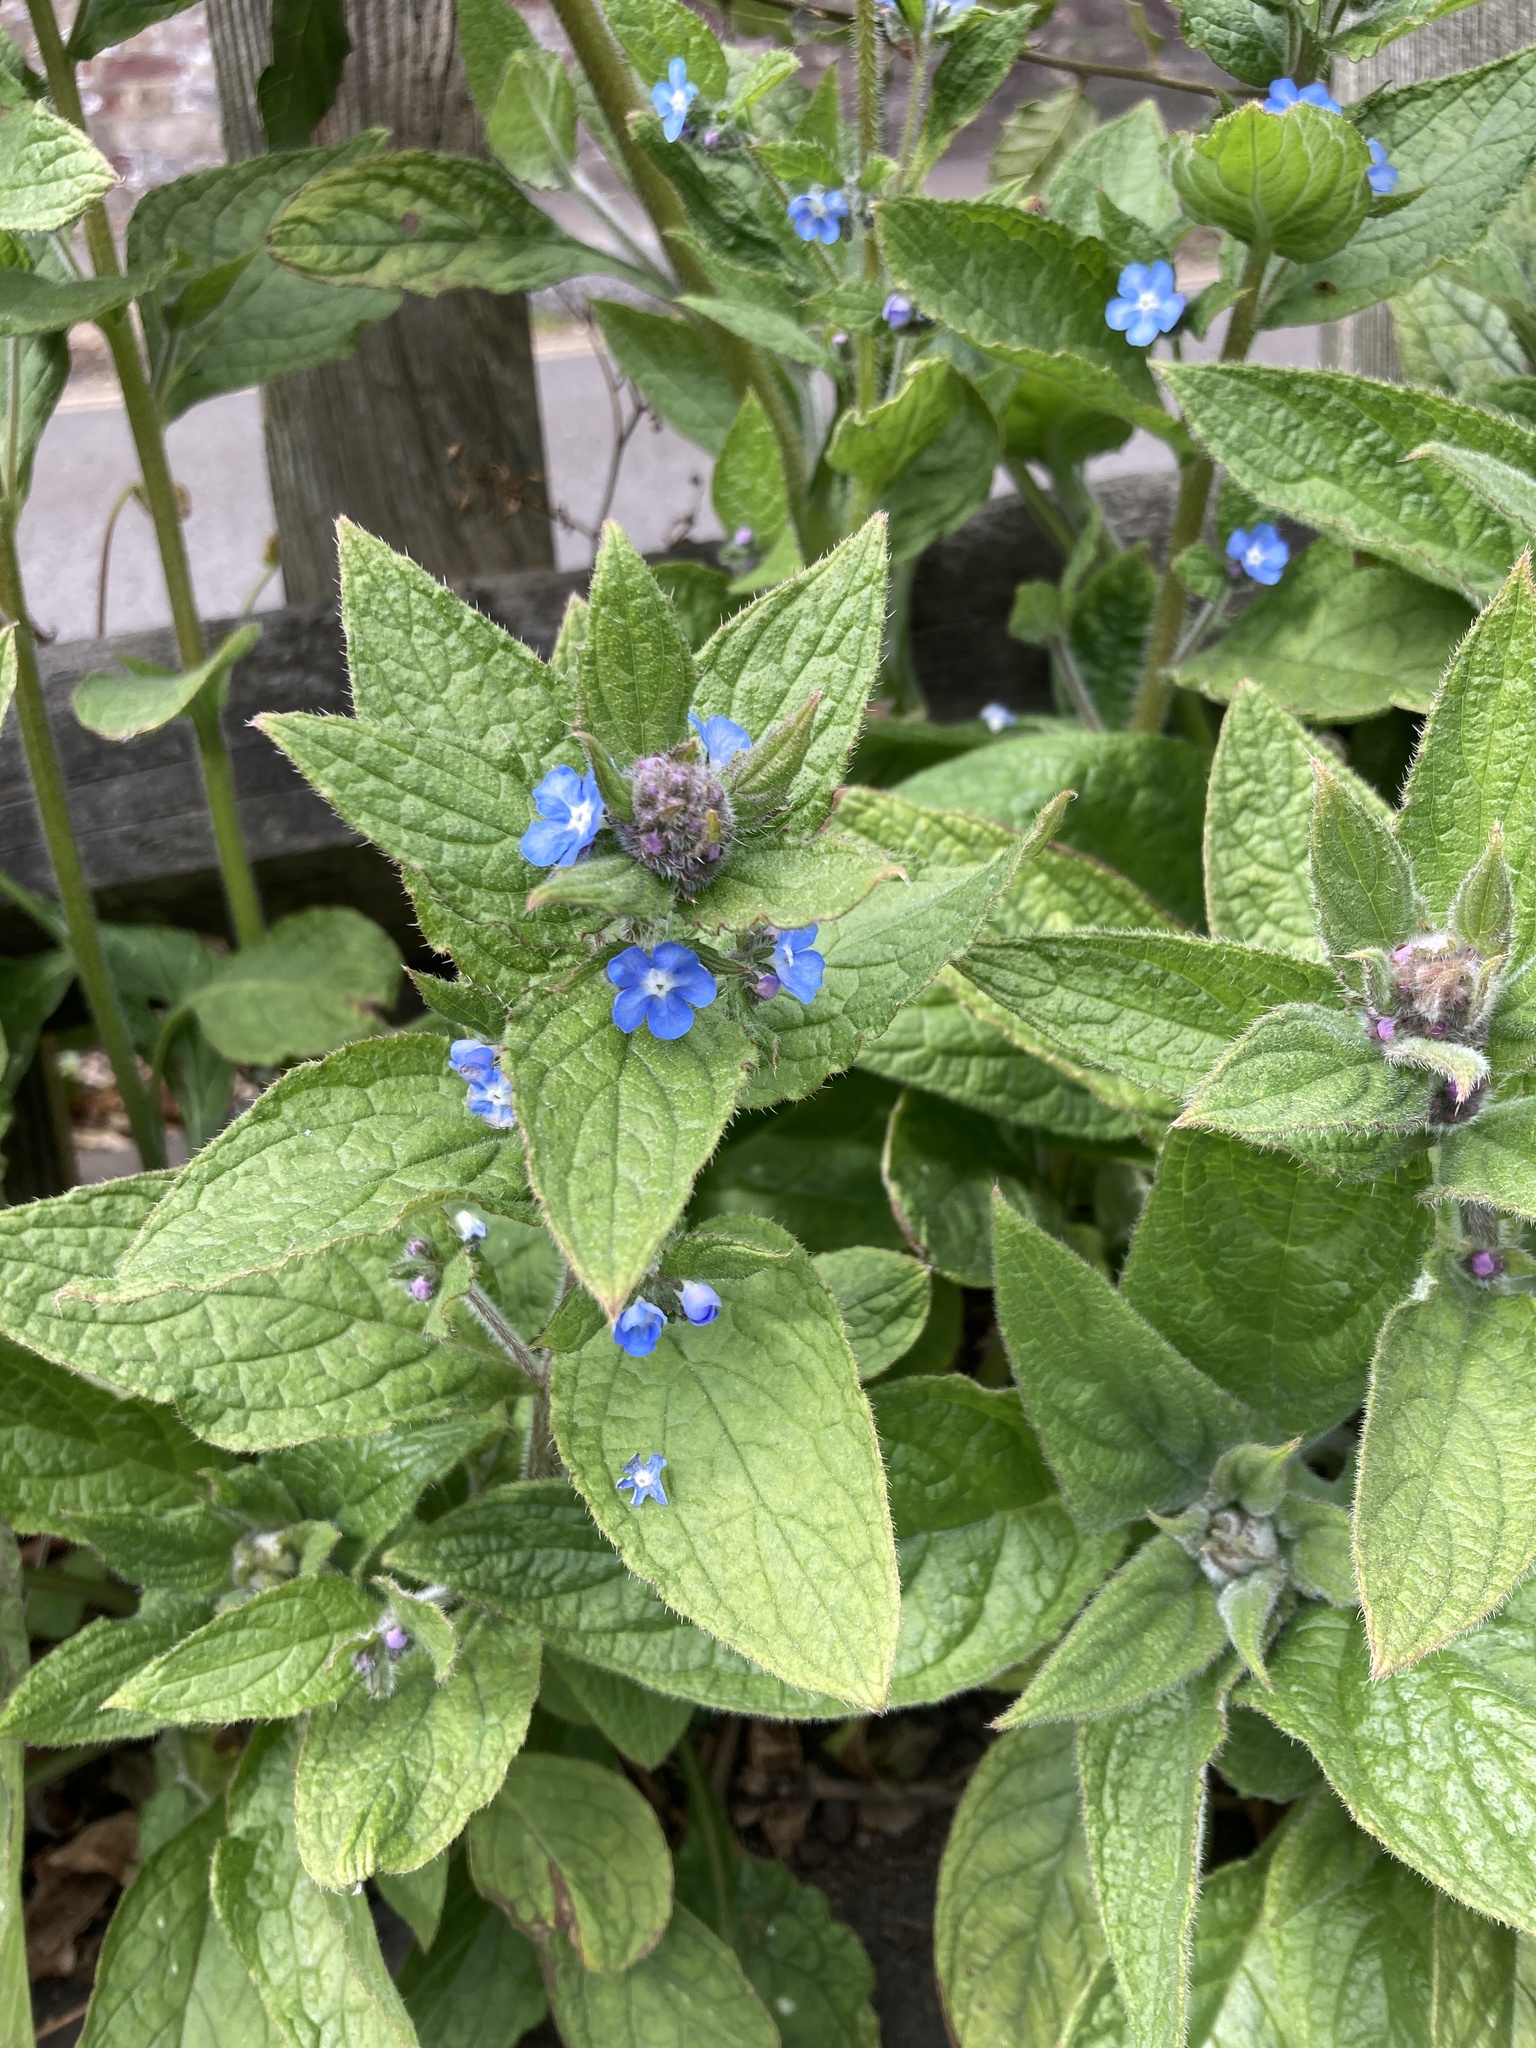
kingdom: Plantae
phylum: Tracheophyta
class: Magnoliopsida
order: Boraginales
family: Boraginaceae
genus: Pentaglottis
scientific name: Pentaglottis sempervirens
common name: Green alkanet
